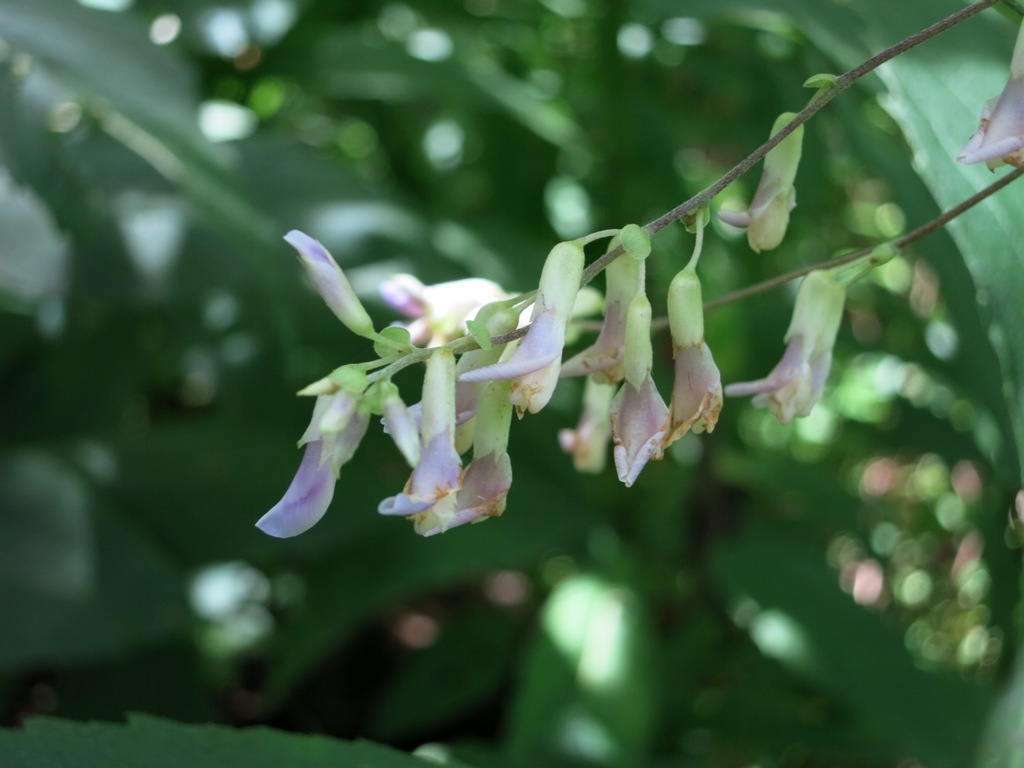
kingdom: Plantae
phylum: Tracheophyta
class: Magnoliopsida
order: Fabales
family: Fabaceae
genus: Amphicarpaea
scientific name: Amphicarpaea bracteata
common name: American hog peanut
